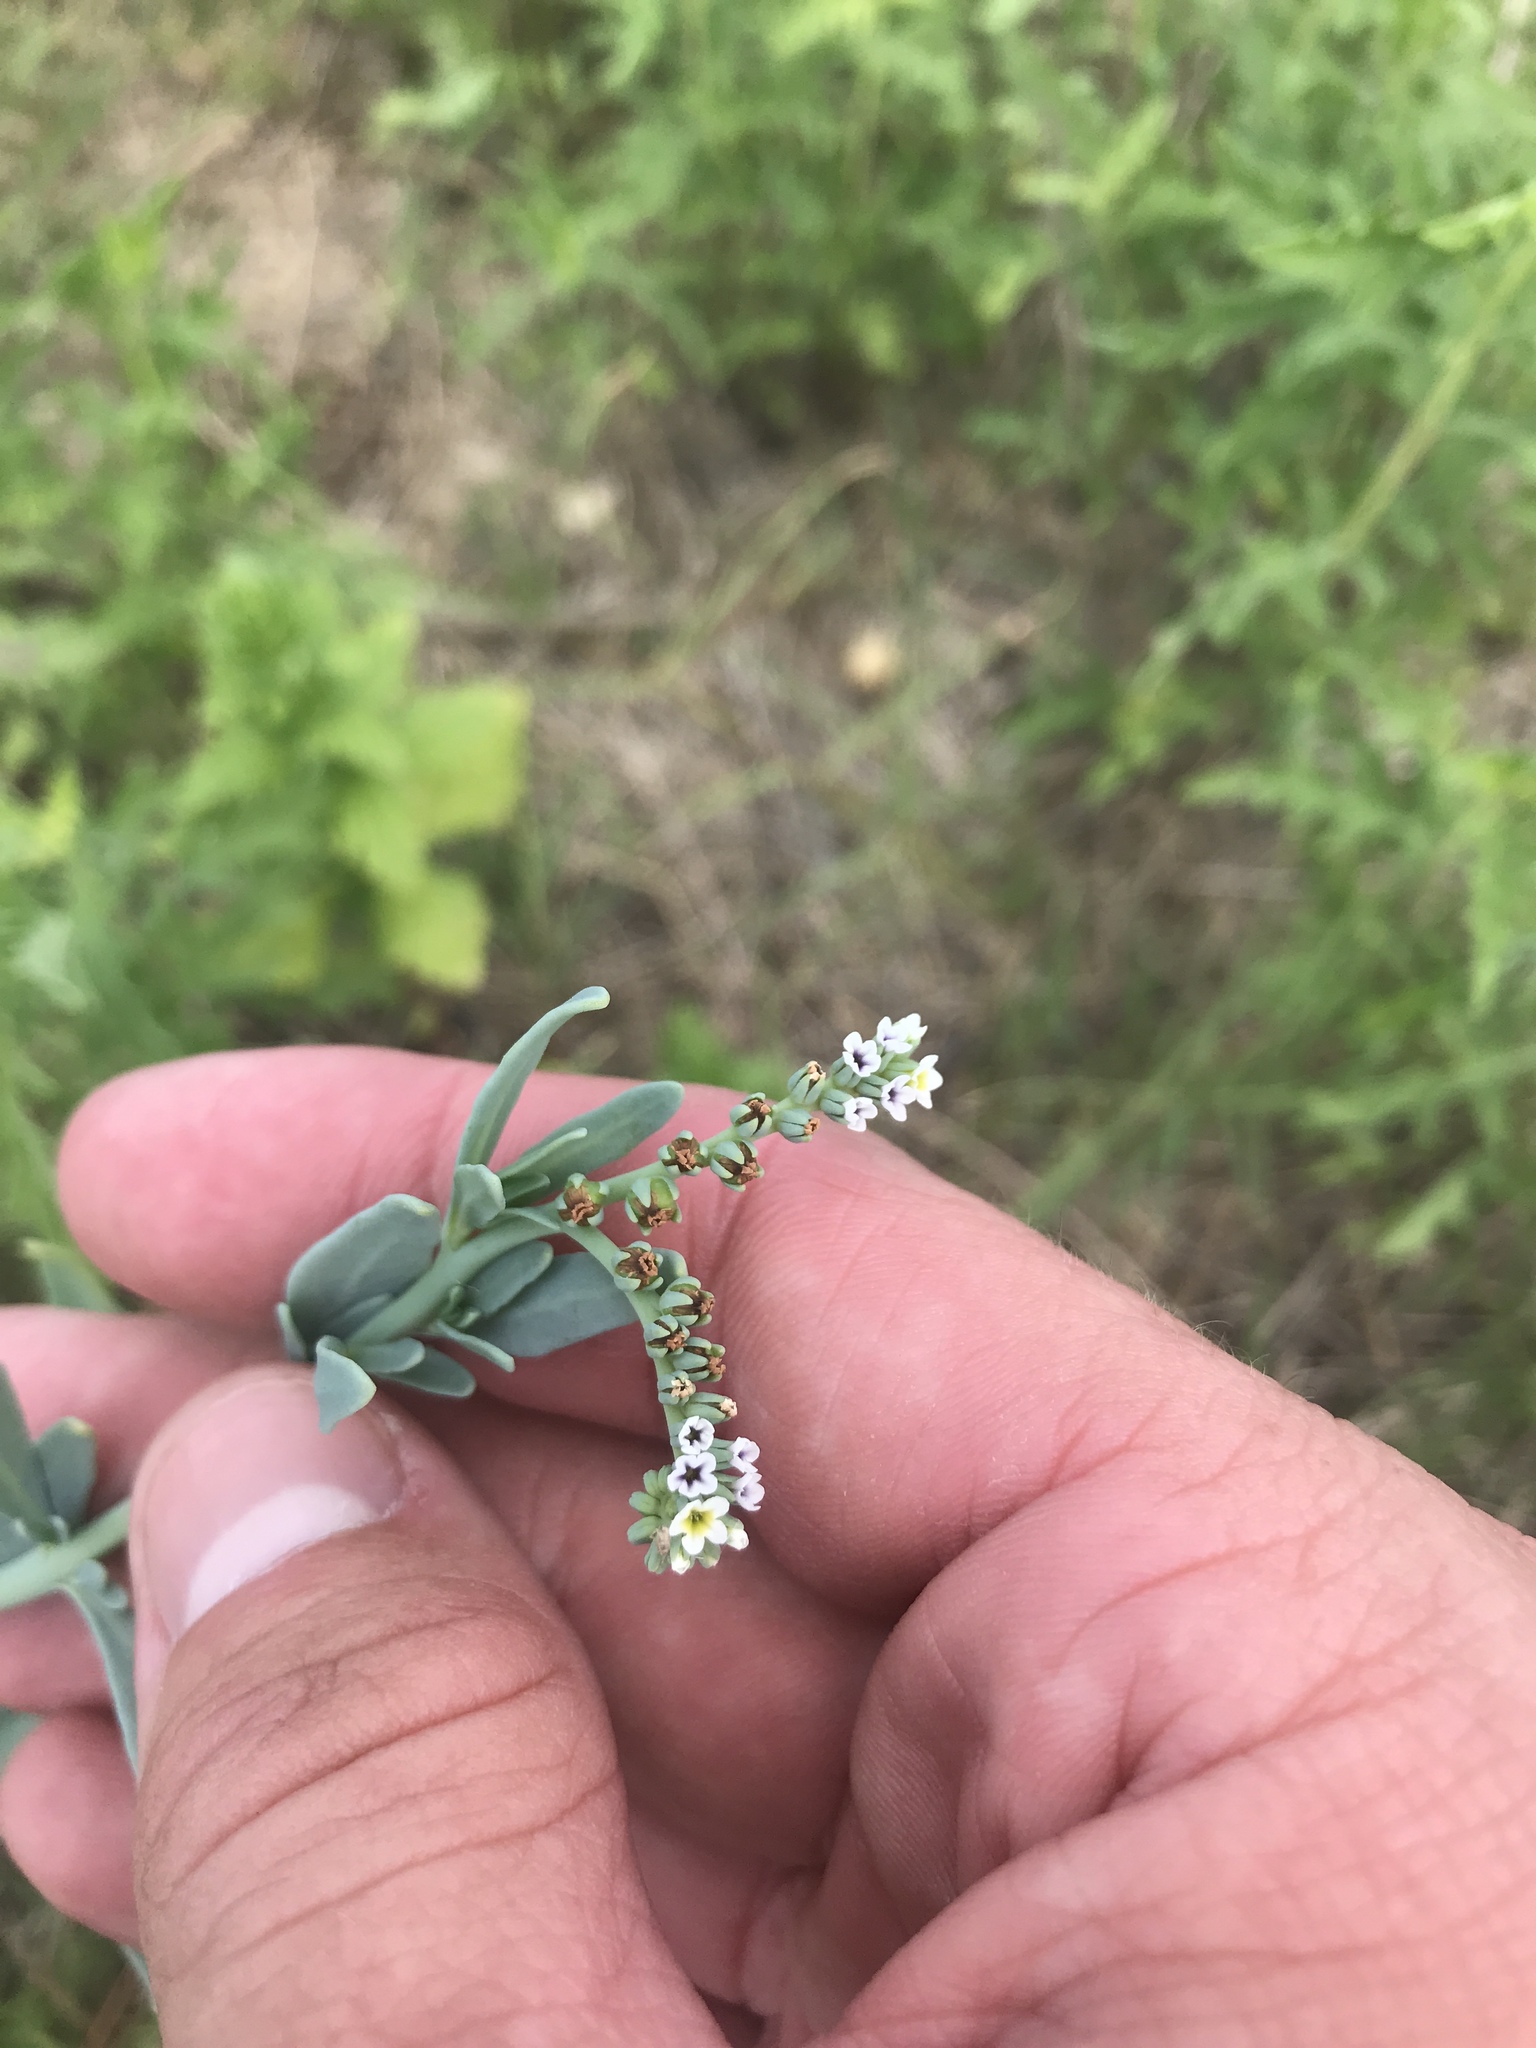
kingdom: Plantae
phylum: Tracheophyta
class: Magnoliopsida
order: Boraginales
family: Heliotropiaceae
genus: Heliotropium
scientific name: Heliotropium curassavicum
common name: Seaside heliotrope
